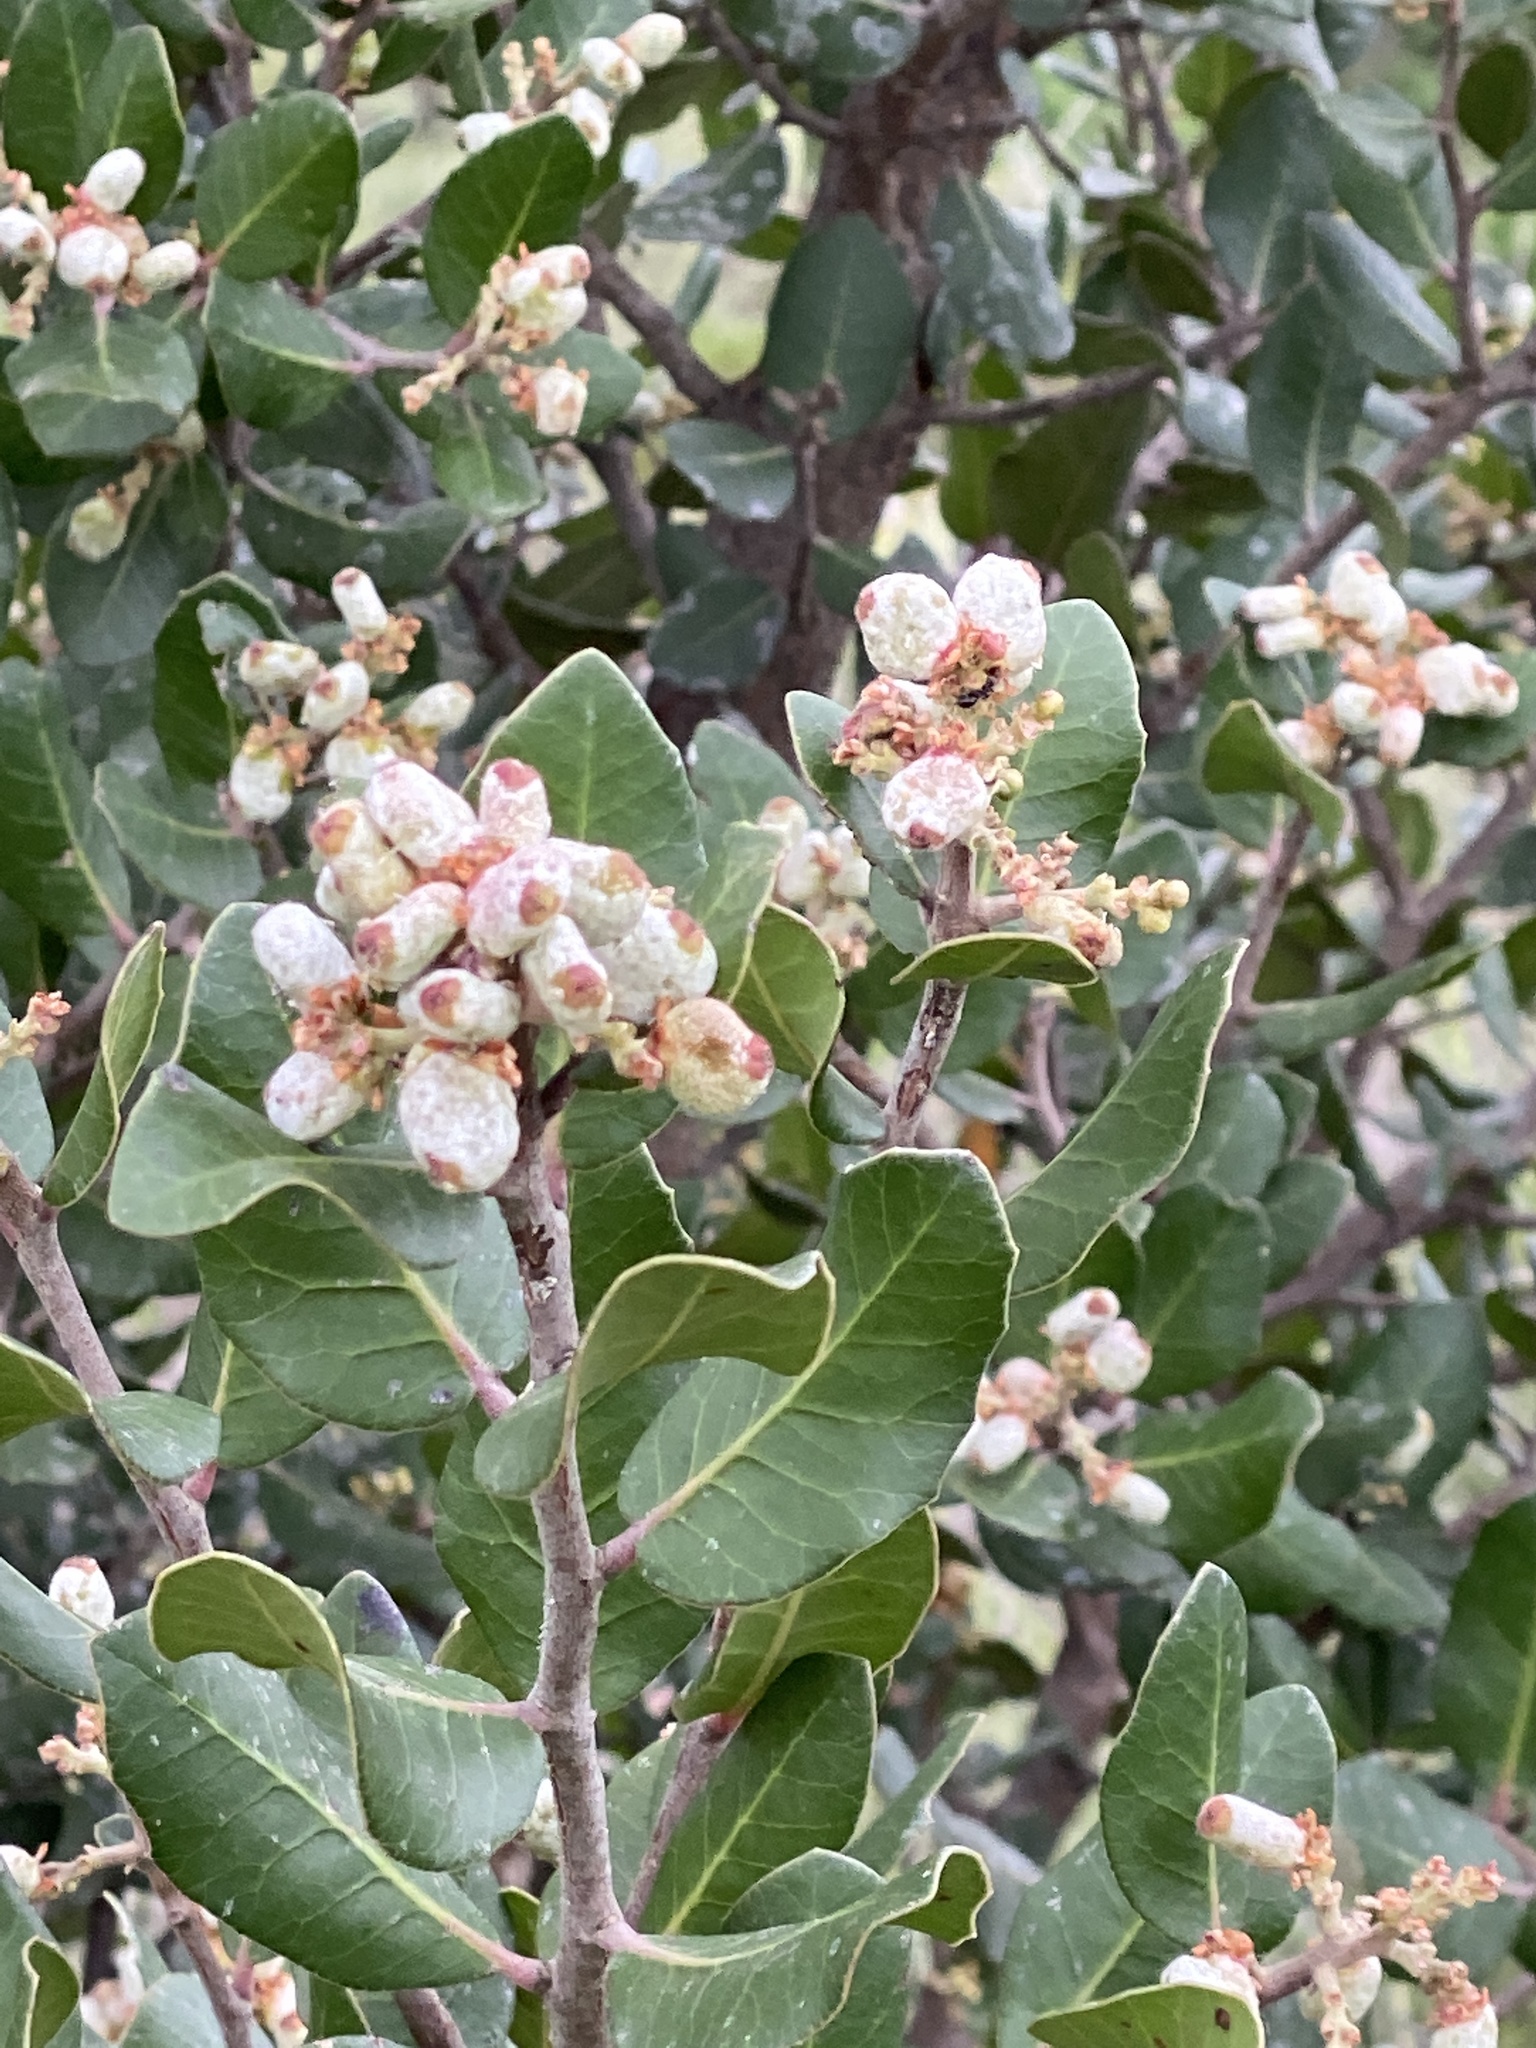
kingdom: Plantae
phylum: Tracheophyta
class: Magnoliopsida
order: Sapindales
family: Anacardiaceae
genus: Rhus
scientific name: Rhus integrifolia
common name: Lemonade sumac
